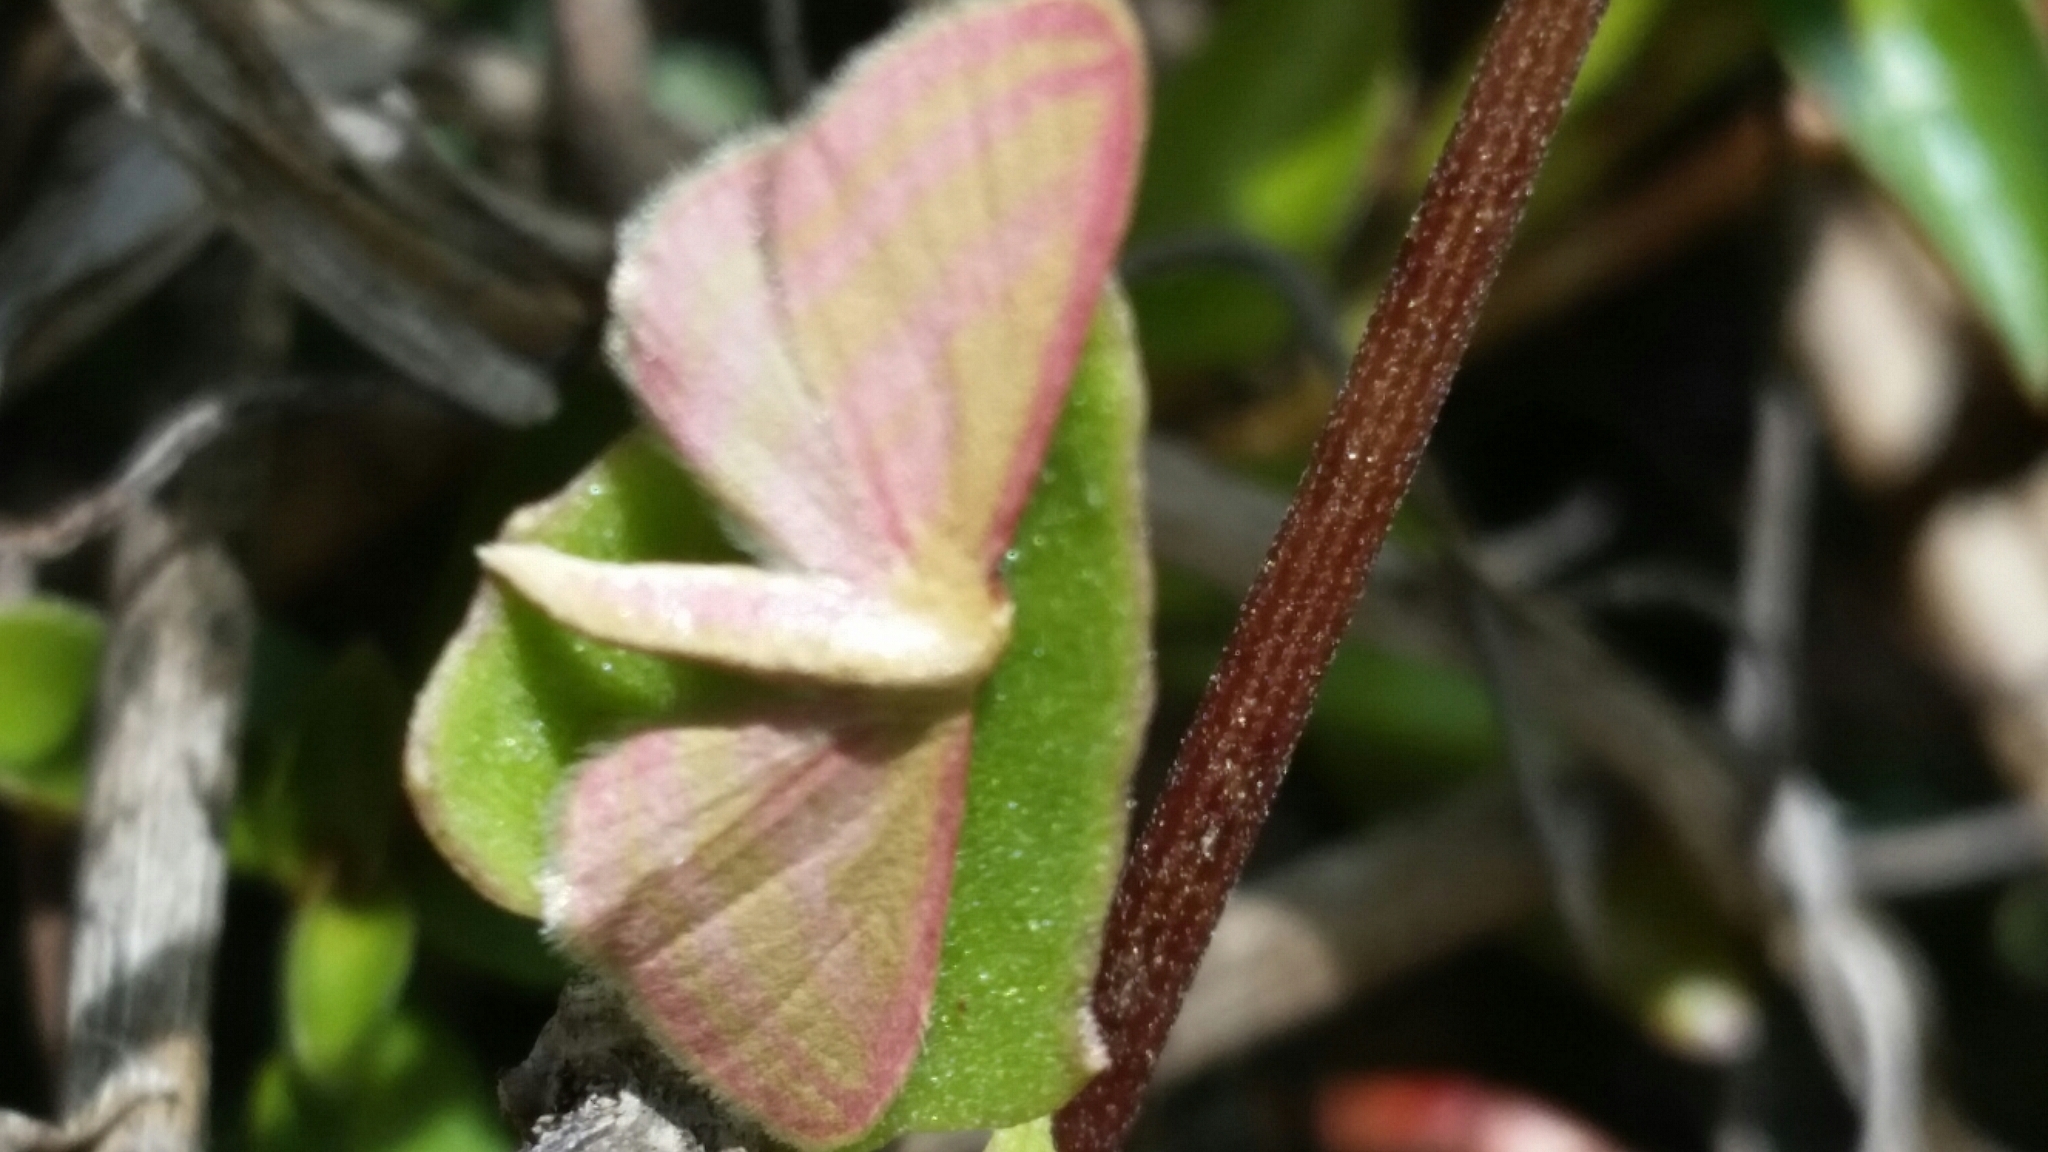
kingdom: Animalia
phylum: Arthropoda
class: Insecta
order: Lepidoptera
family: Geometridae
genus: Leptostales
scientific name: Leptostales laevitaria
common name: Raspberry wave moth
